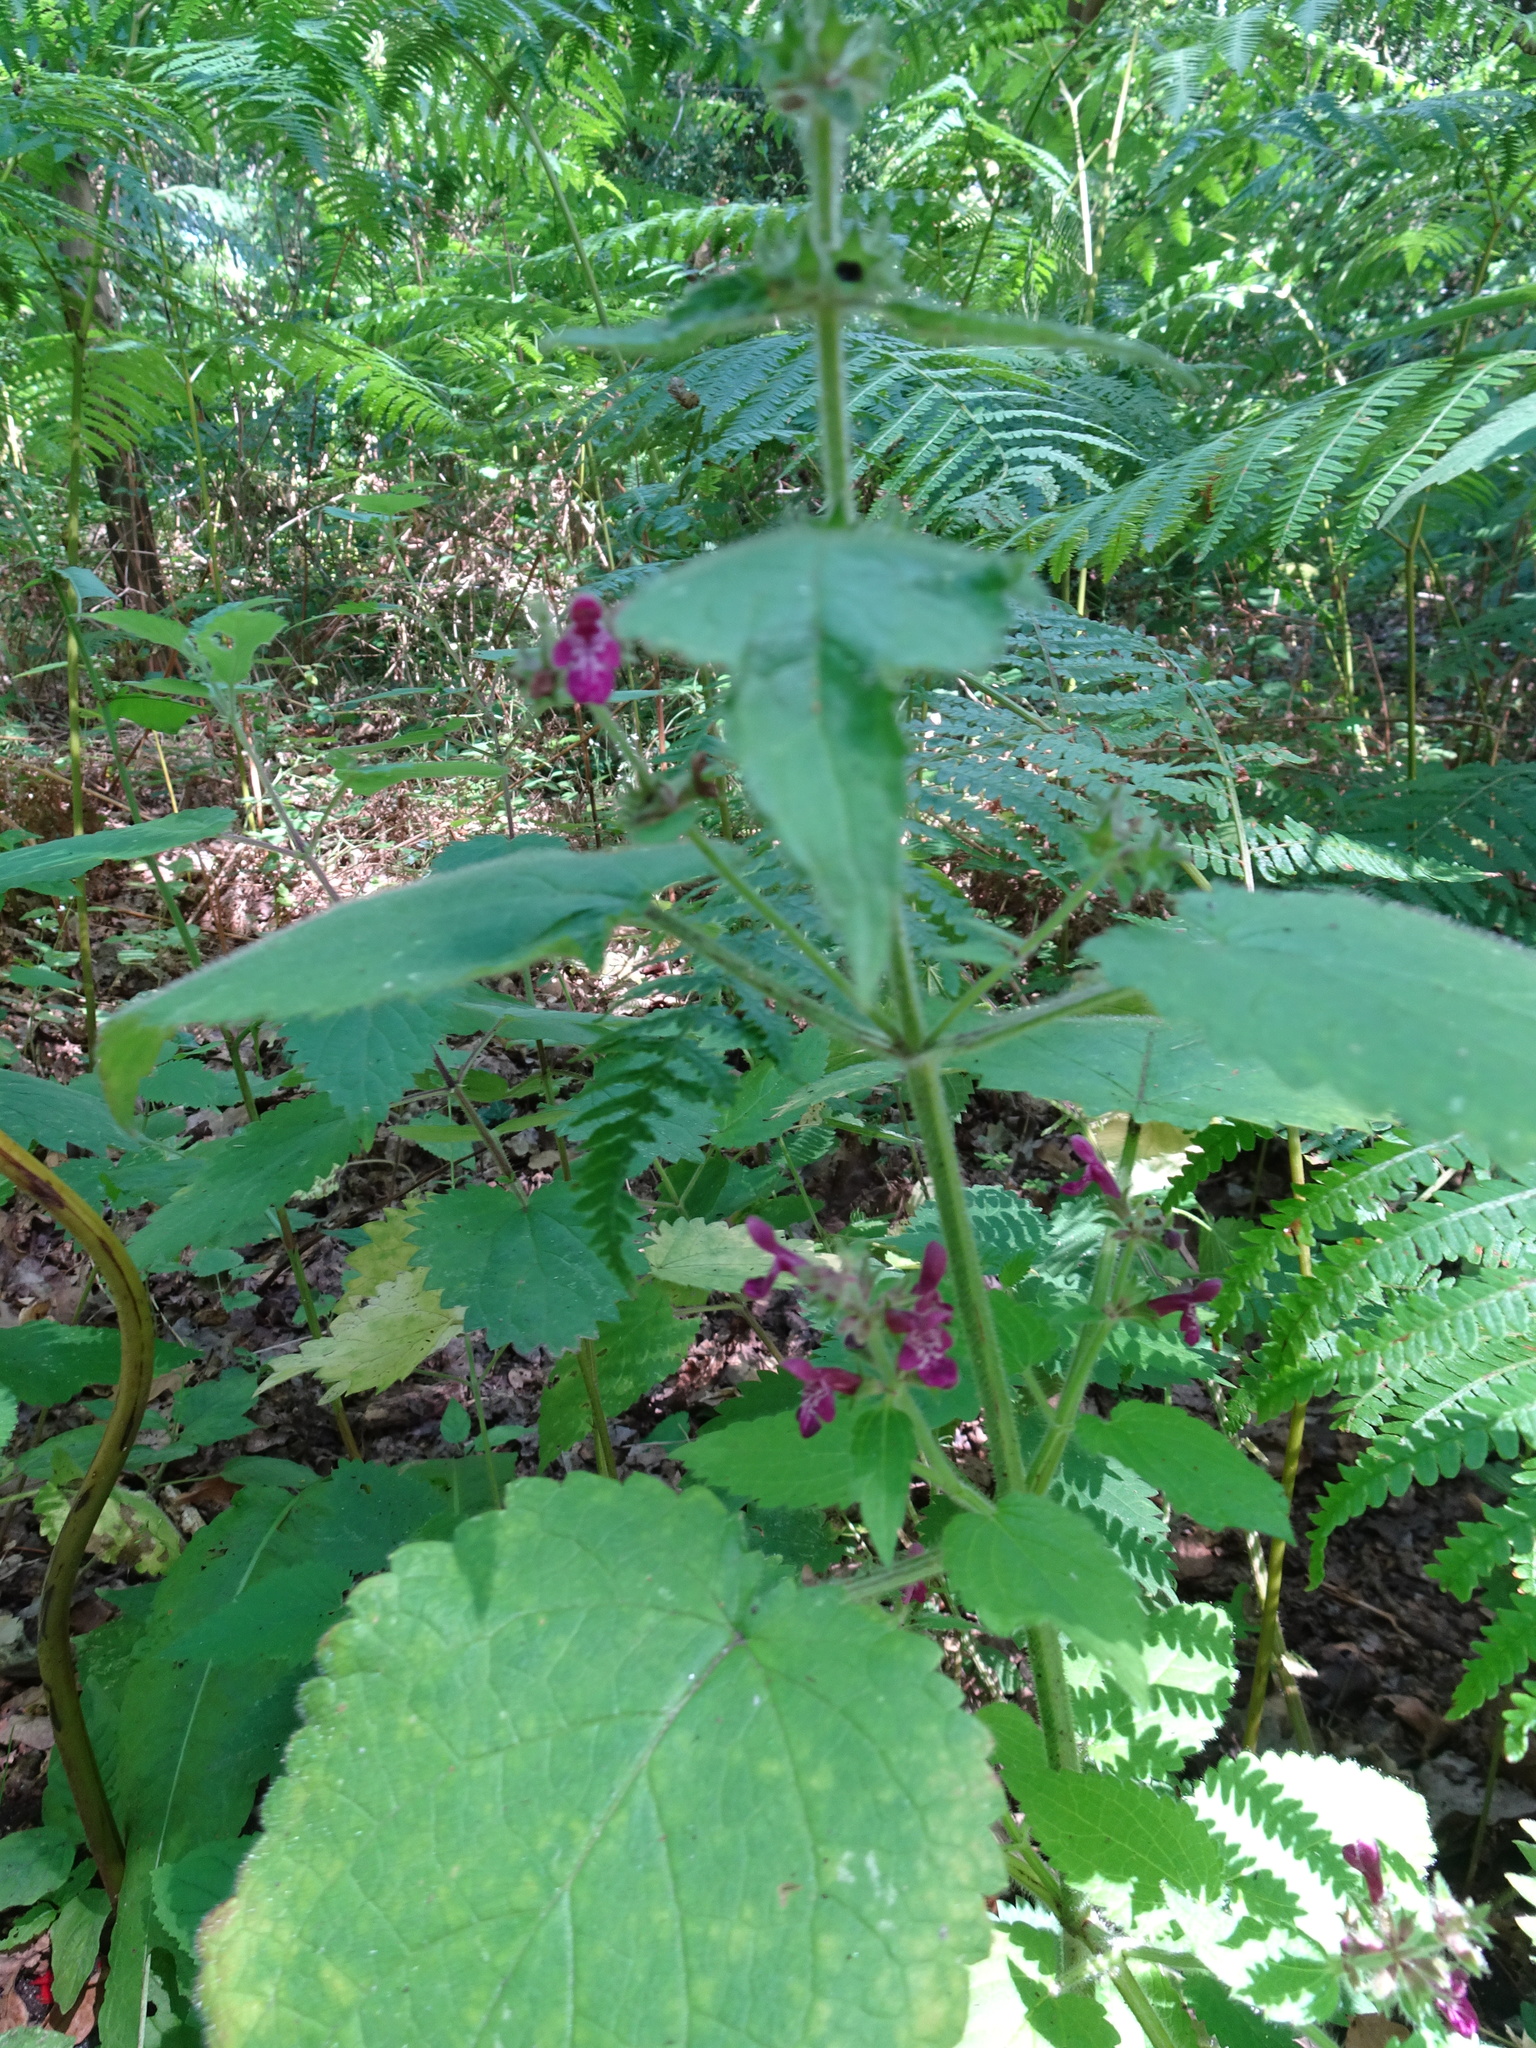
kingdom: Plantae
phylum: Tracheophyta
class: Magnoliopsida
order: Lamiales
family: Lamiaceae
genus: Stachys
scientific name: Stachys sylvatica
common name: Hedge woundwort
